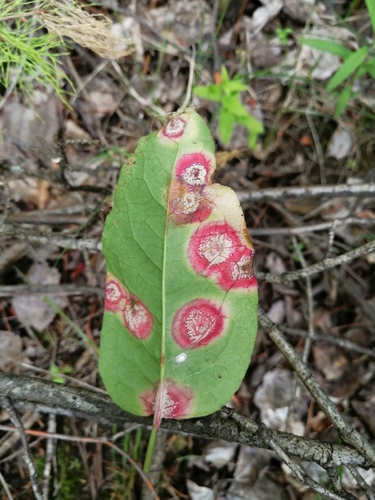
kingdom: Fungi
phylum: Basidiomycota
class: Pucciniomycetes
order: Pucciniales
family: Pucciniaceae
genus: Puccinia
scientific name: Puccinia phragmitis
